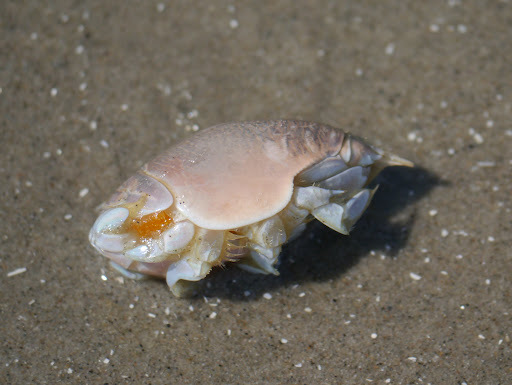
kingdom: Animalia
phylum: Arthropoda
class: Malacostraca
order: Decapoda
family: Hippidae
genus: Emerita
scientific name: Emerita talpoida
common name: Atlantic sand crab
